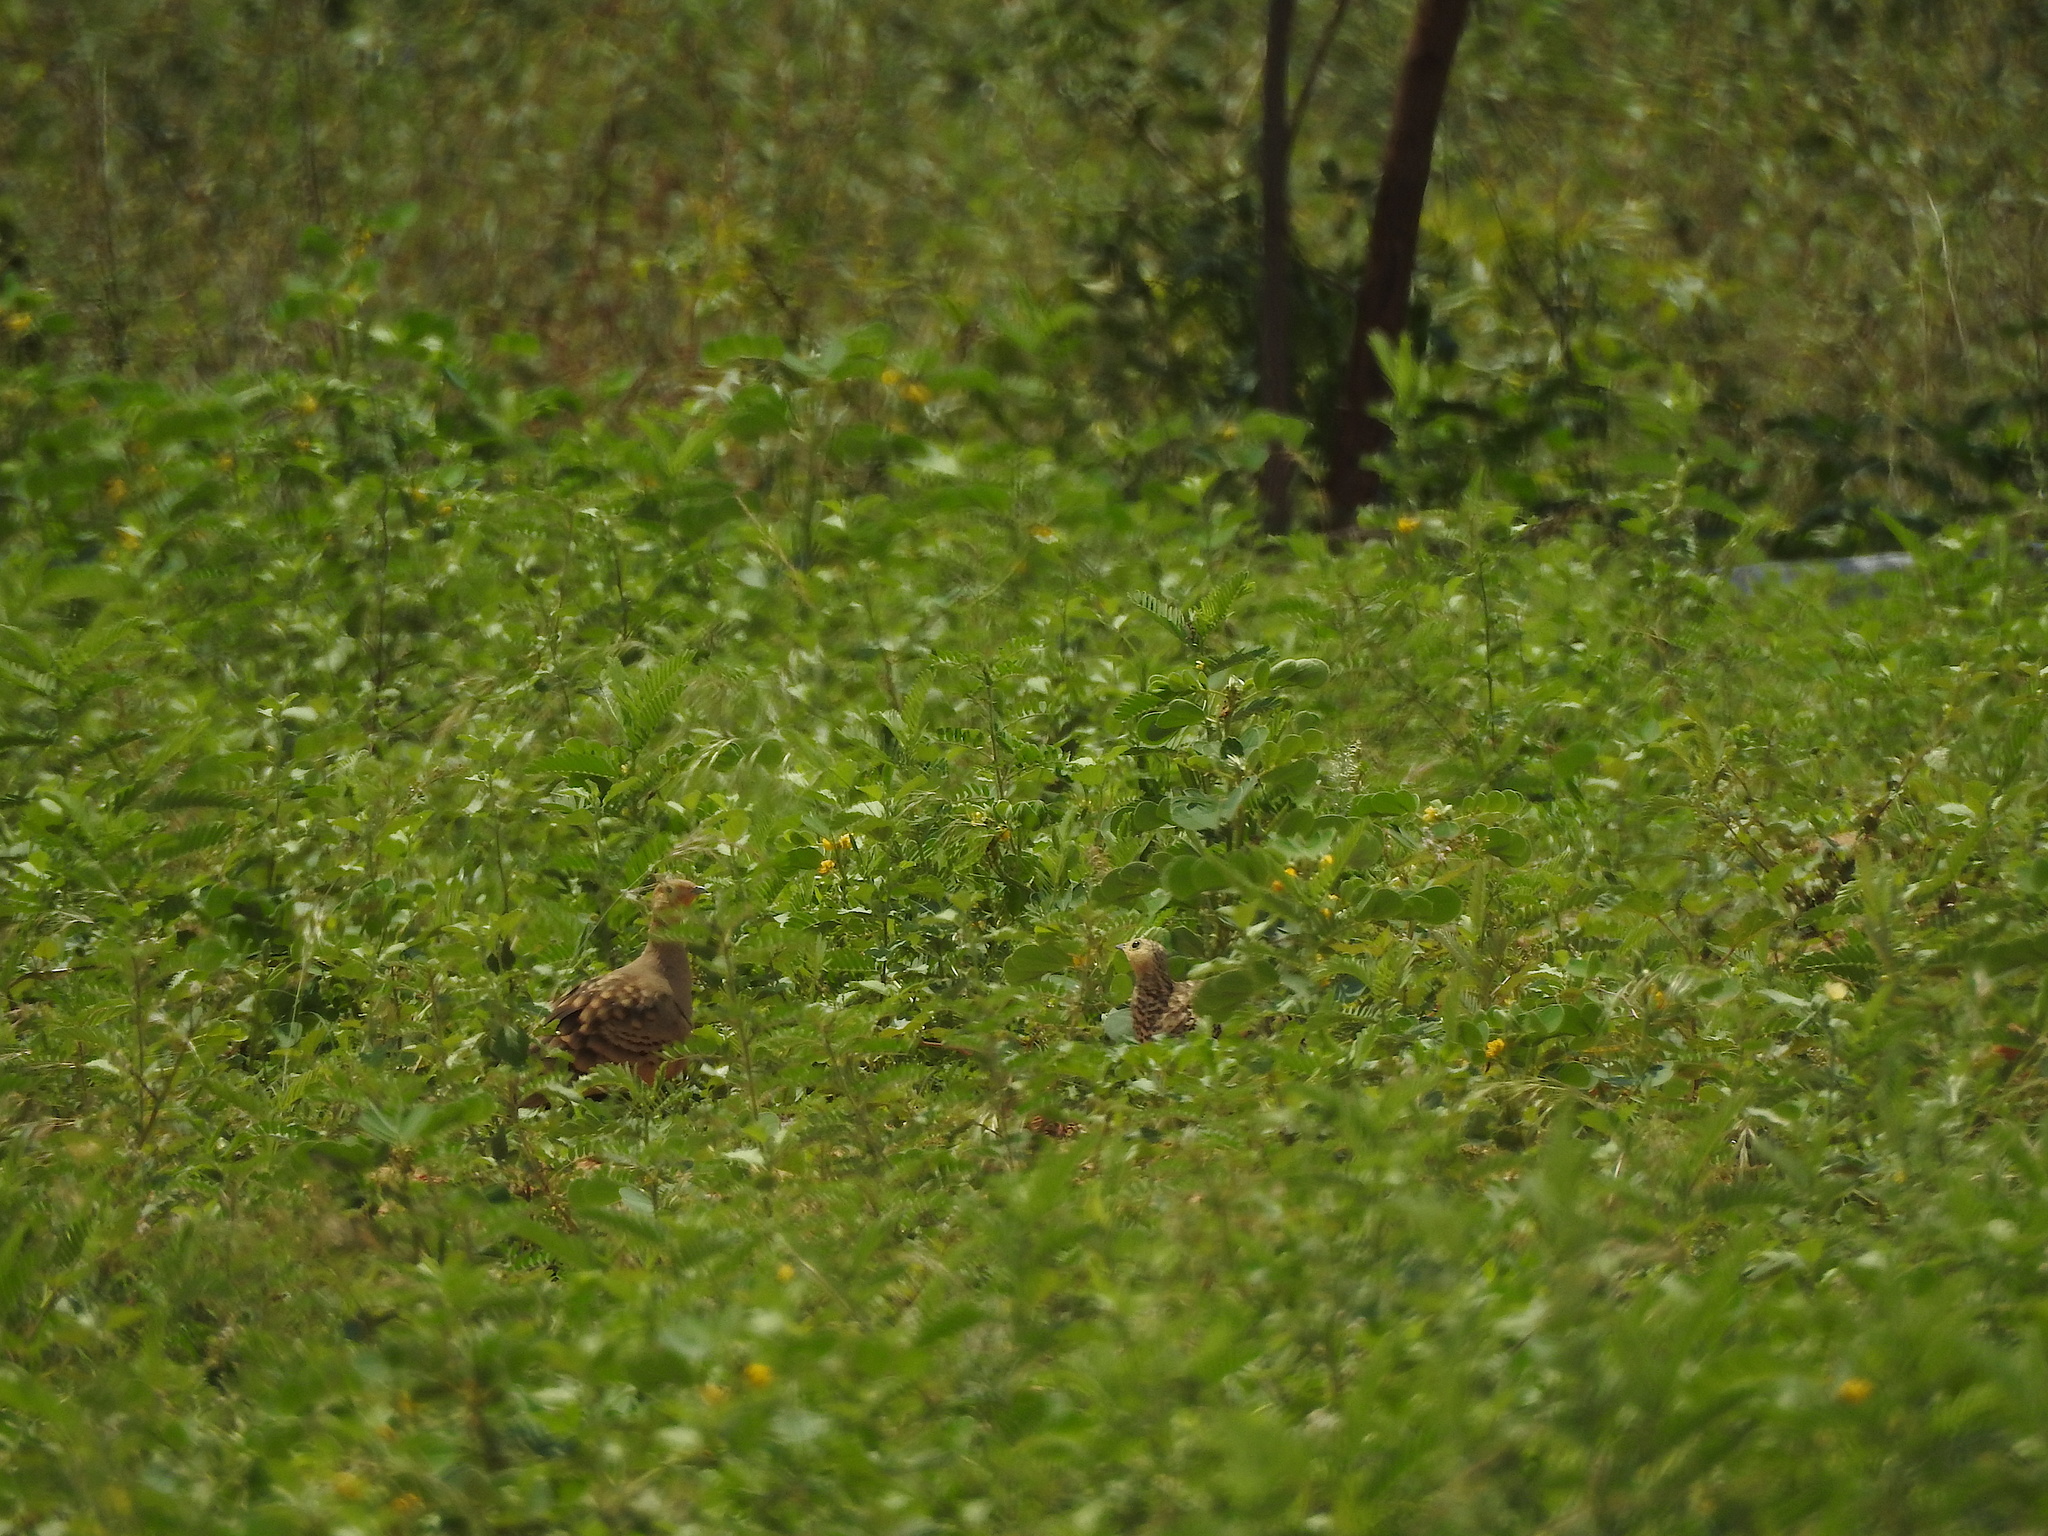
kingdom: Animalia
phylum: Chordata
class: Aves
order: Pteroclidiformes
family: Pteroclididae
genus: Pterocles
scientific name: Pterocles exustus
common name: Chestnut-bellied sandgrouse
